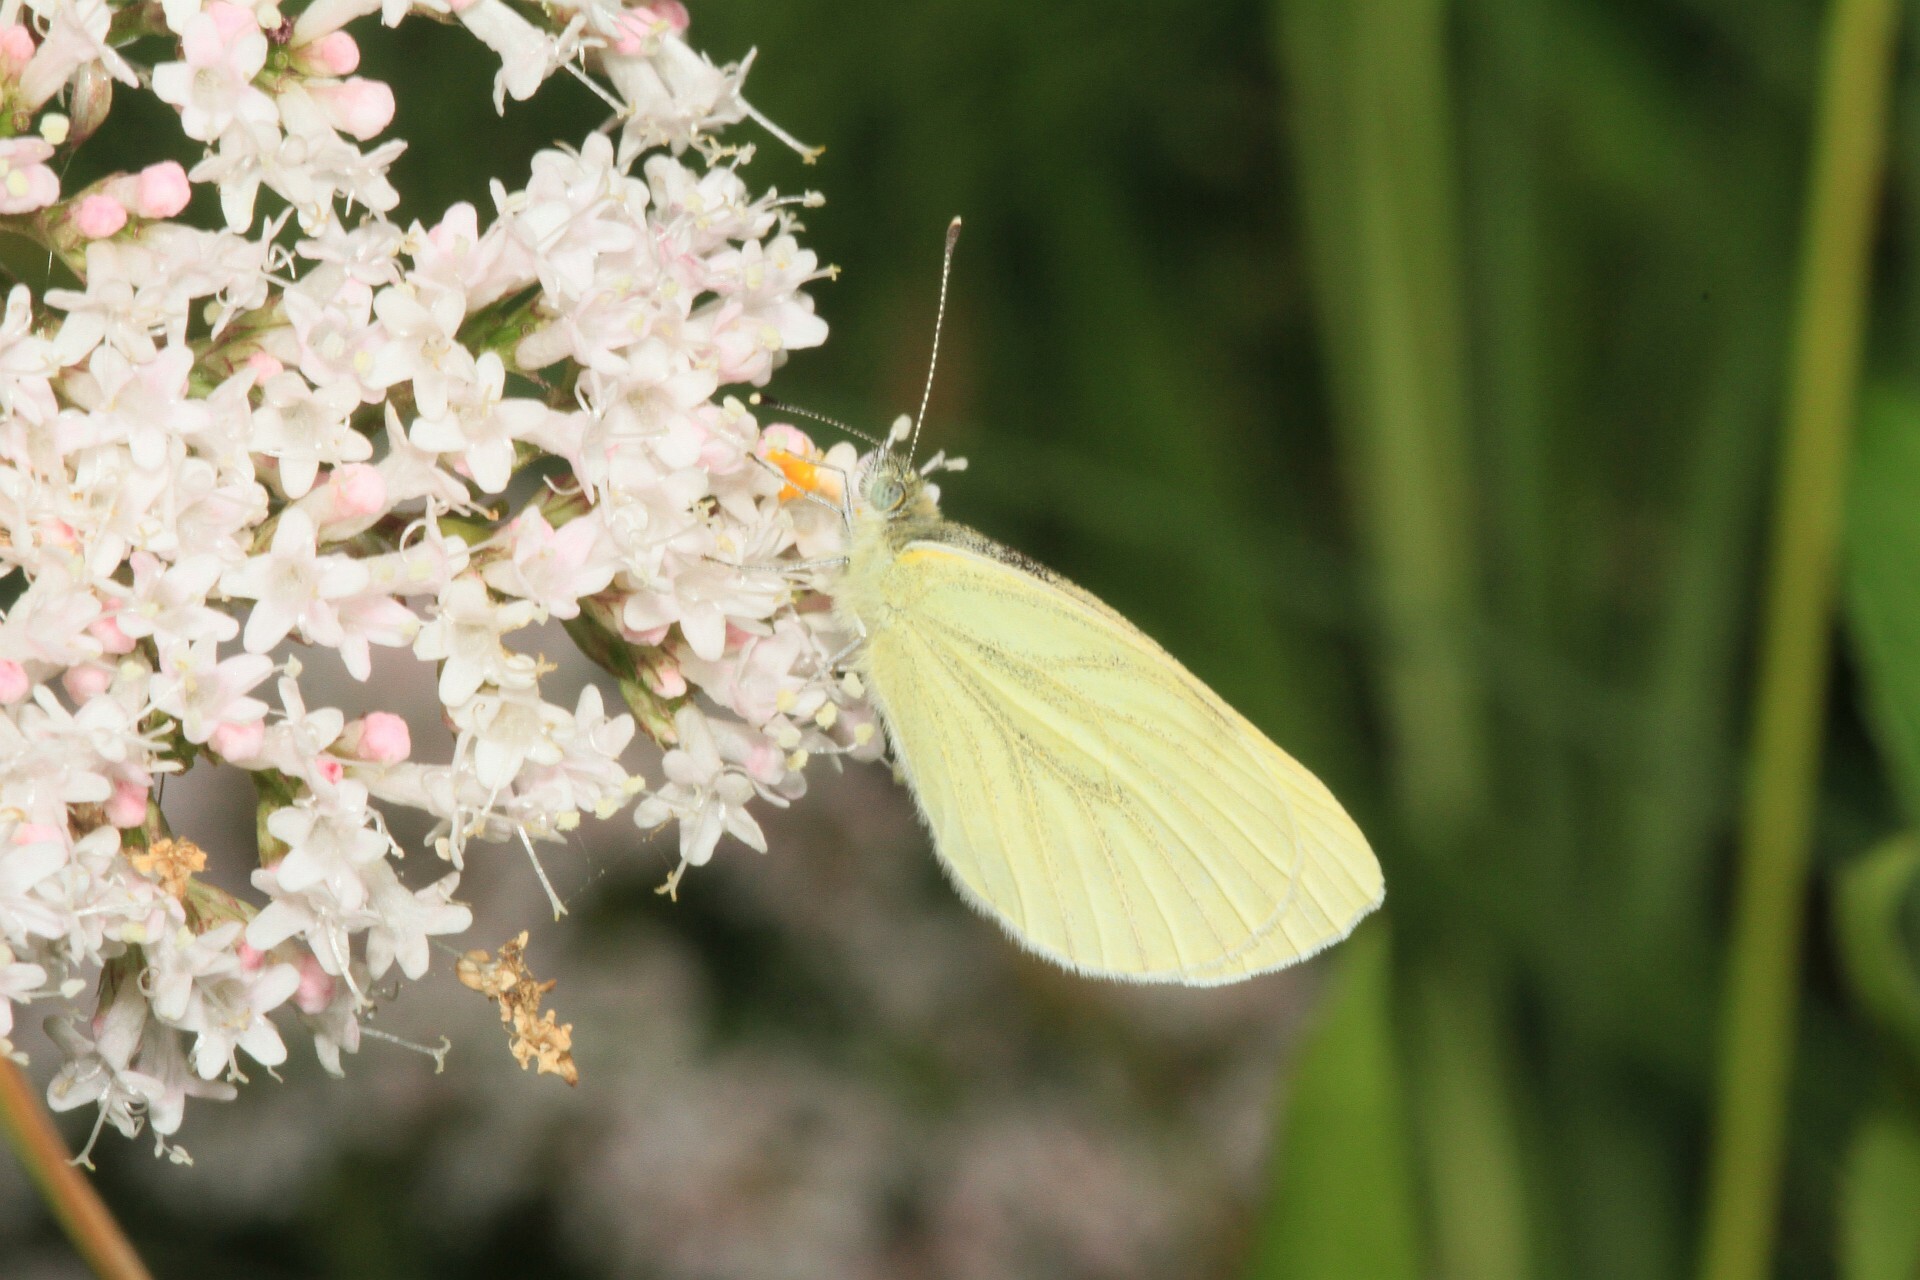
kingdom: Animalia
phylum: Arthropoda
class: Insecta
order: Lepidoptera
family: Pieridae
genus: Pieris
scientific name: Pieris napi
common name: Green-veined white
